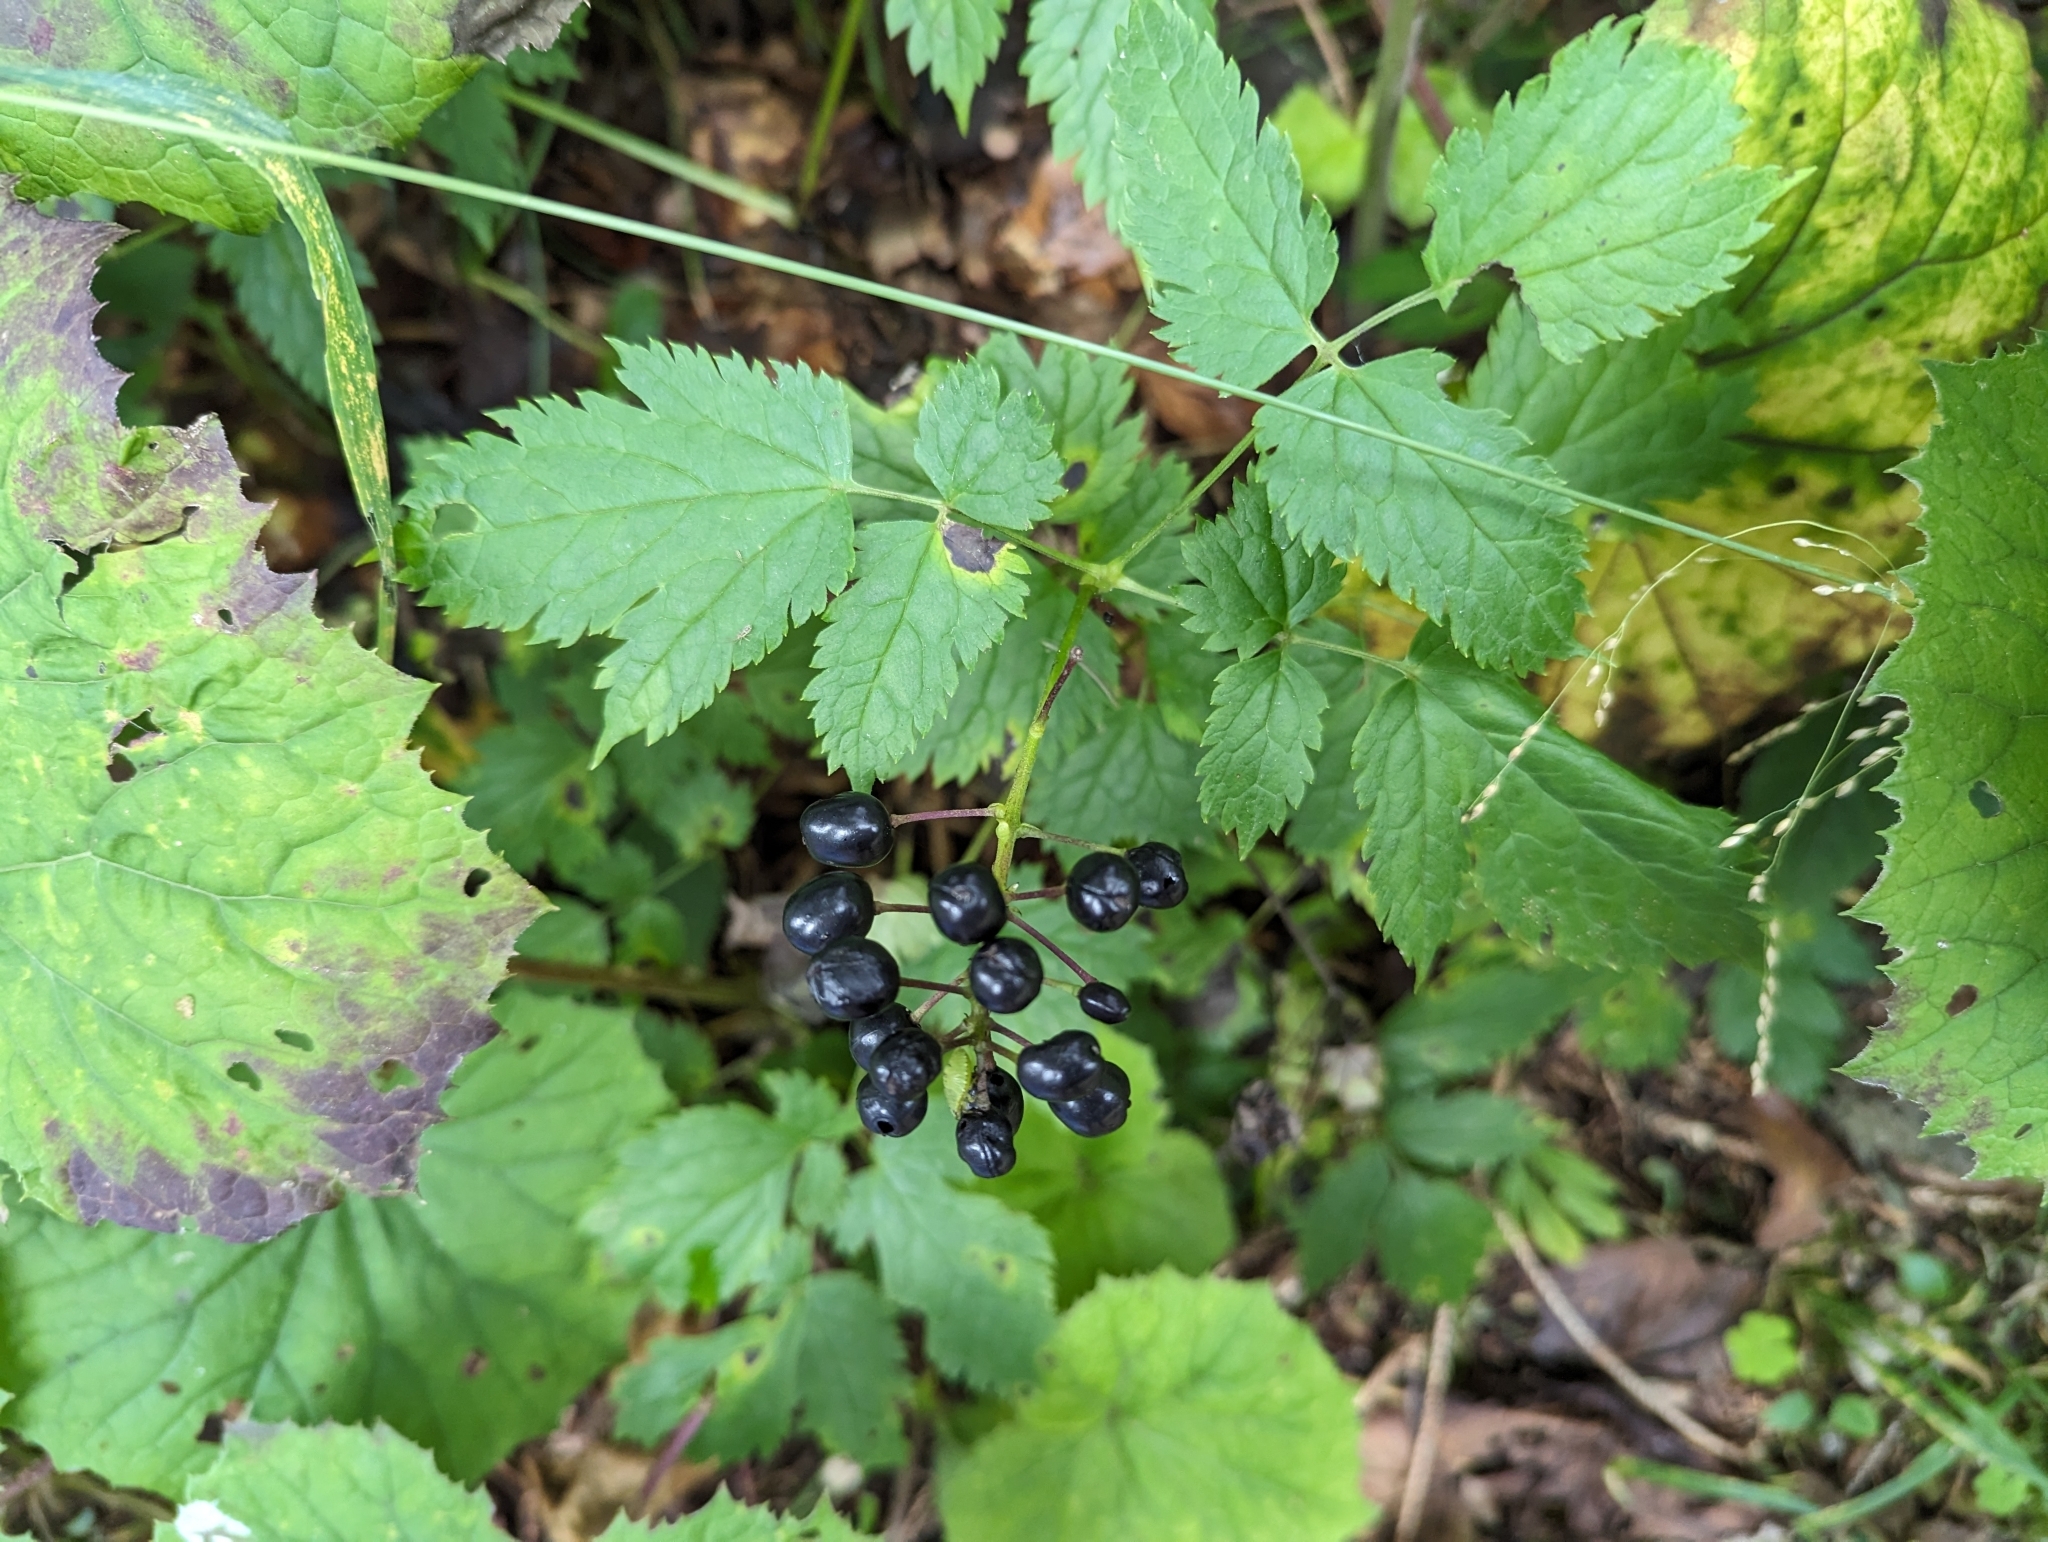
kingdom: Plantae
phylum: Tracheophyta
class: Magnoliopsida
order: Ranunculales
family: Ranunculaceae
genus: Actaea
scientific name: Actaea spicata
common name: Baneberry
